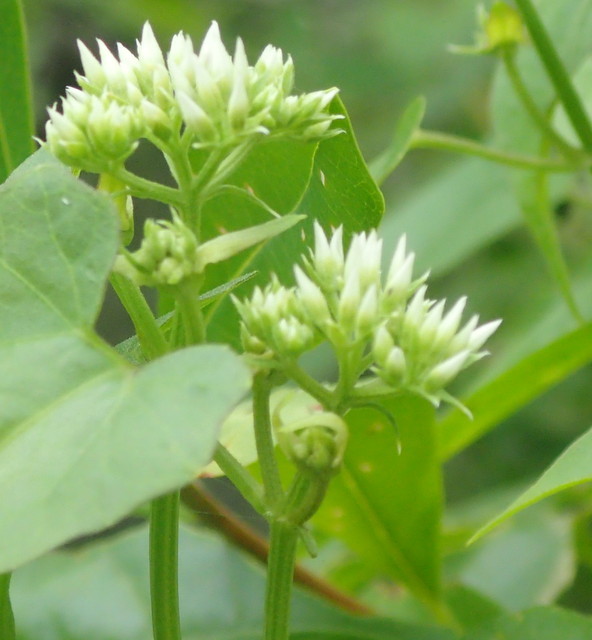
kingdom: Plantae
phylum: Tracheophyta
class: Magnoliopsida
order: Asterales
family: Asteraceae
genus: Mikania
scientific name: Mikania scandens
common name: Climbing hempvine
